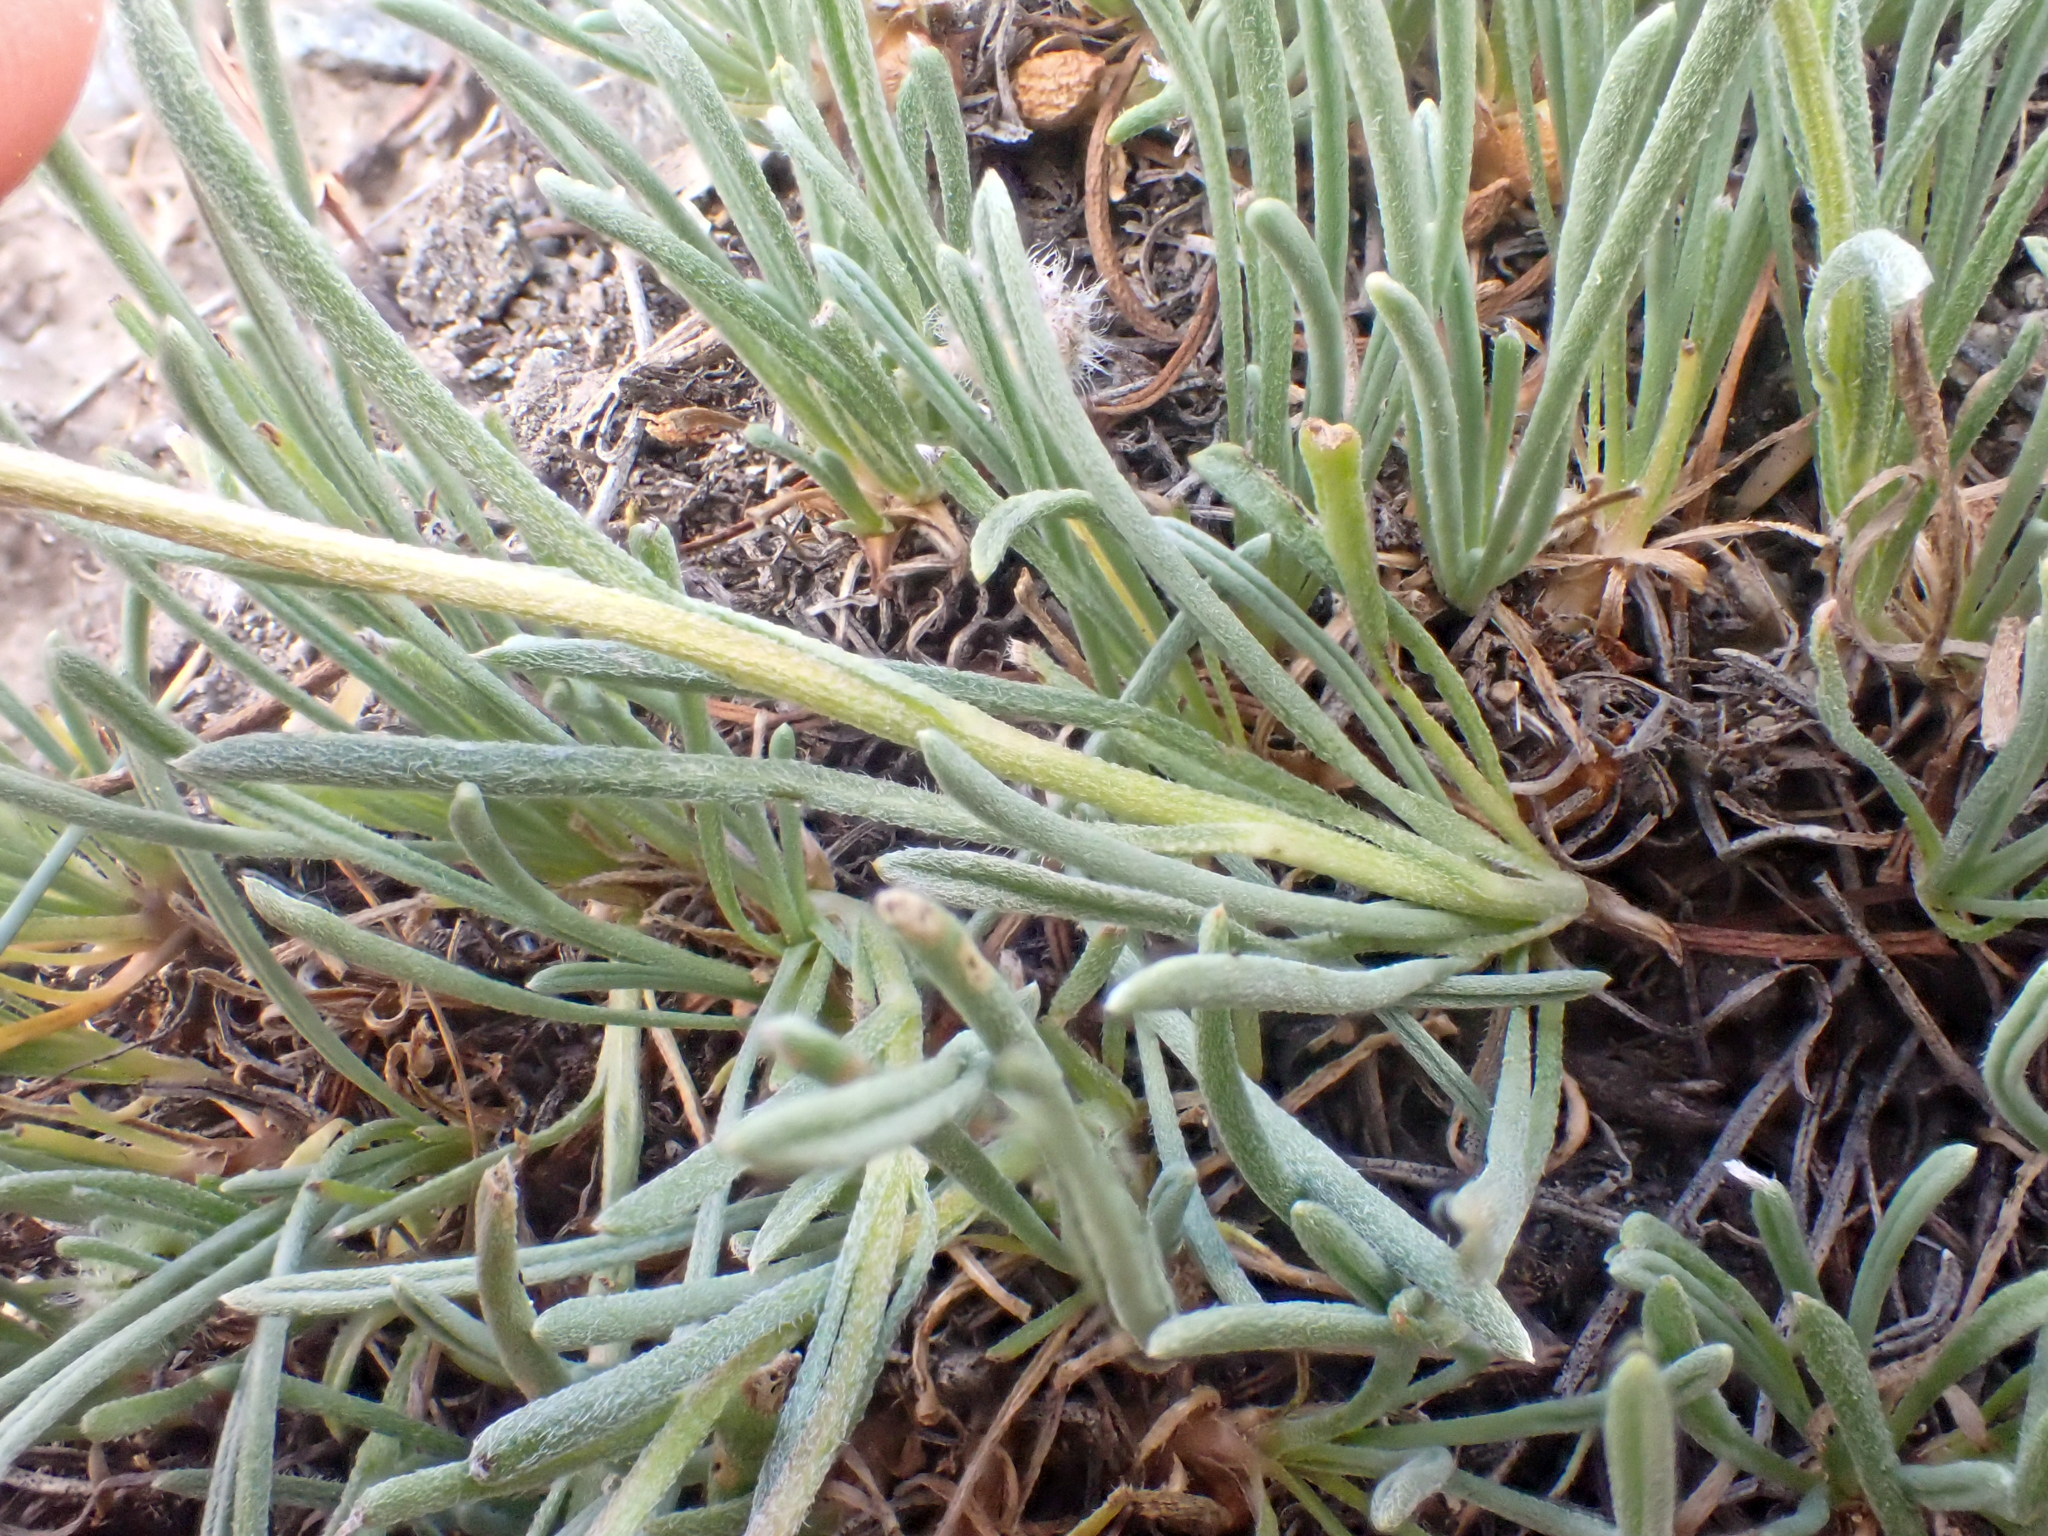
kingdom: Plantae
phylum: Tracheophyta
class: Magnoliopsida
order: Asterales
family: Asteraceae
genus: Erigeron
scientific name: Erigeron bloomeri
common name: Bloomer's fleabane
